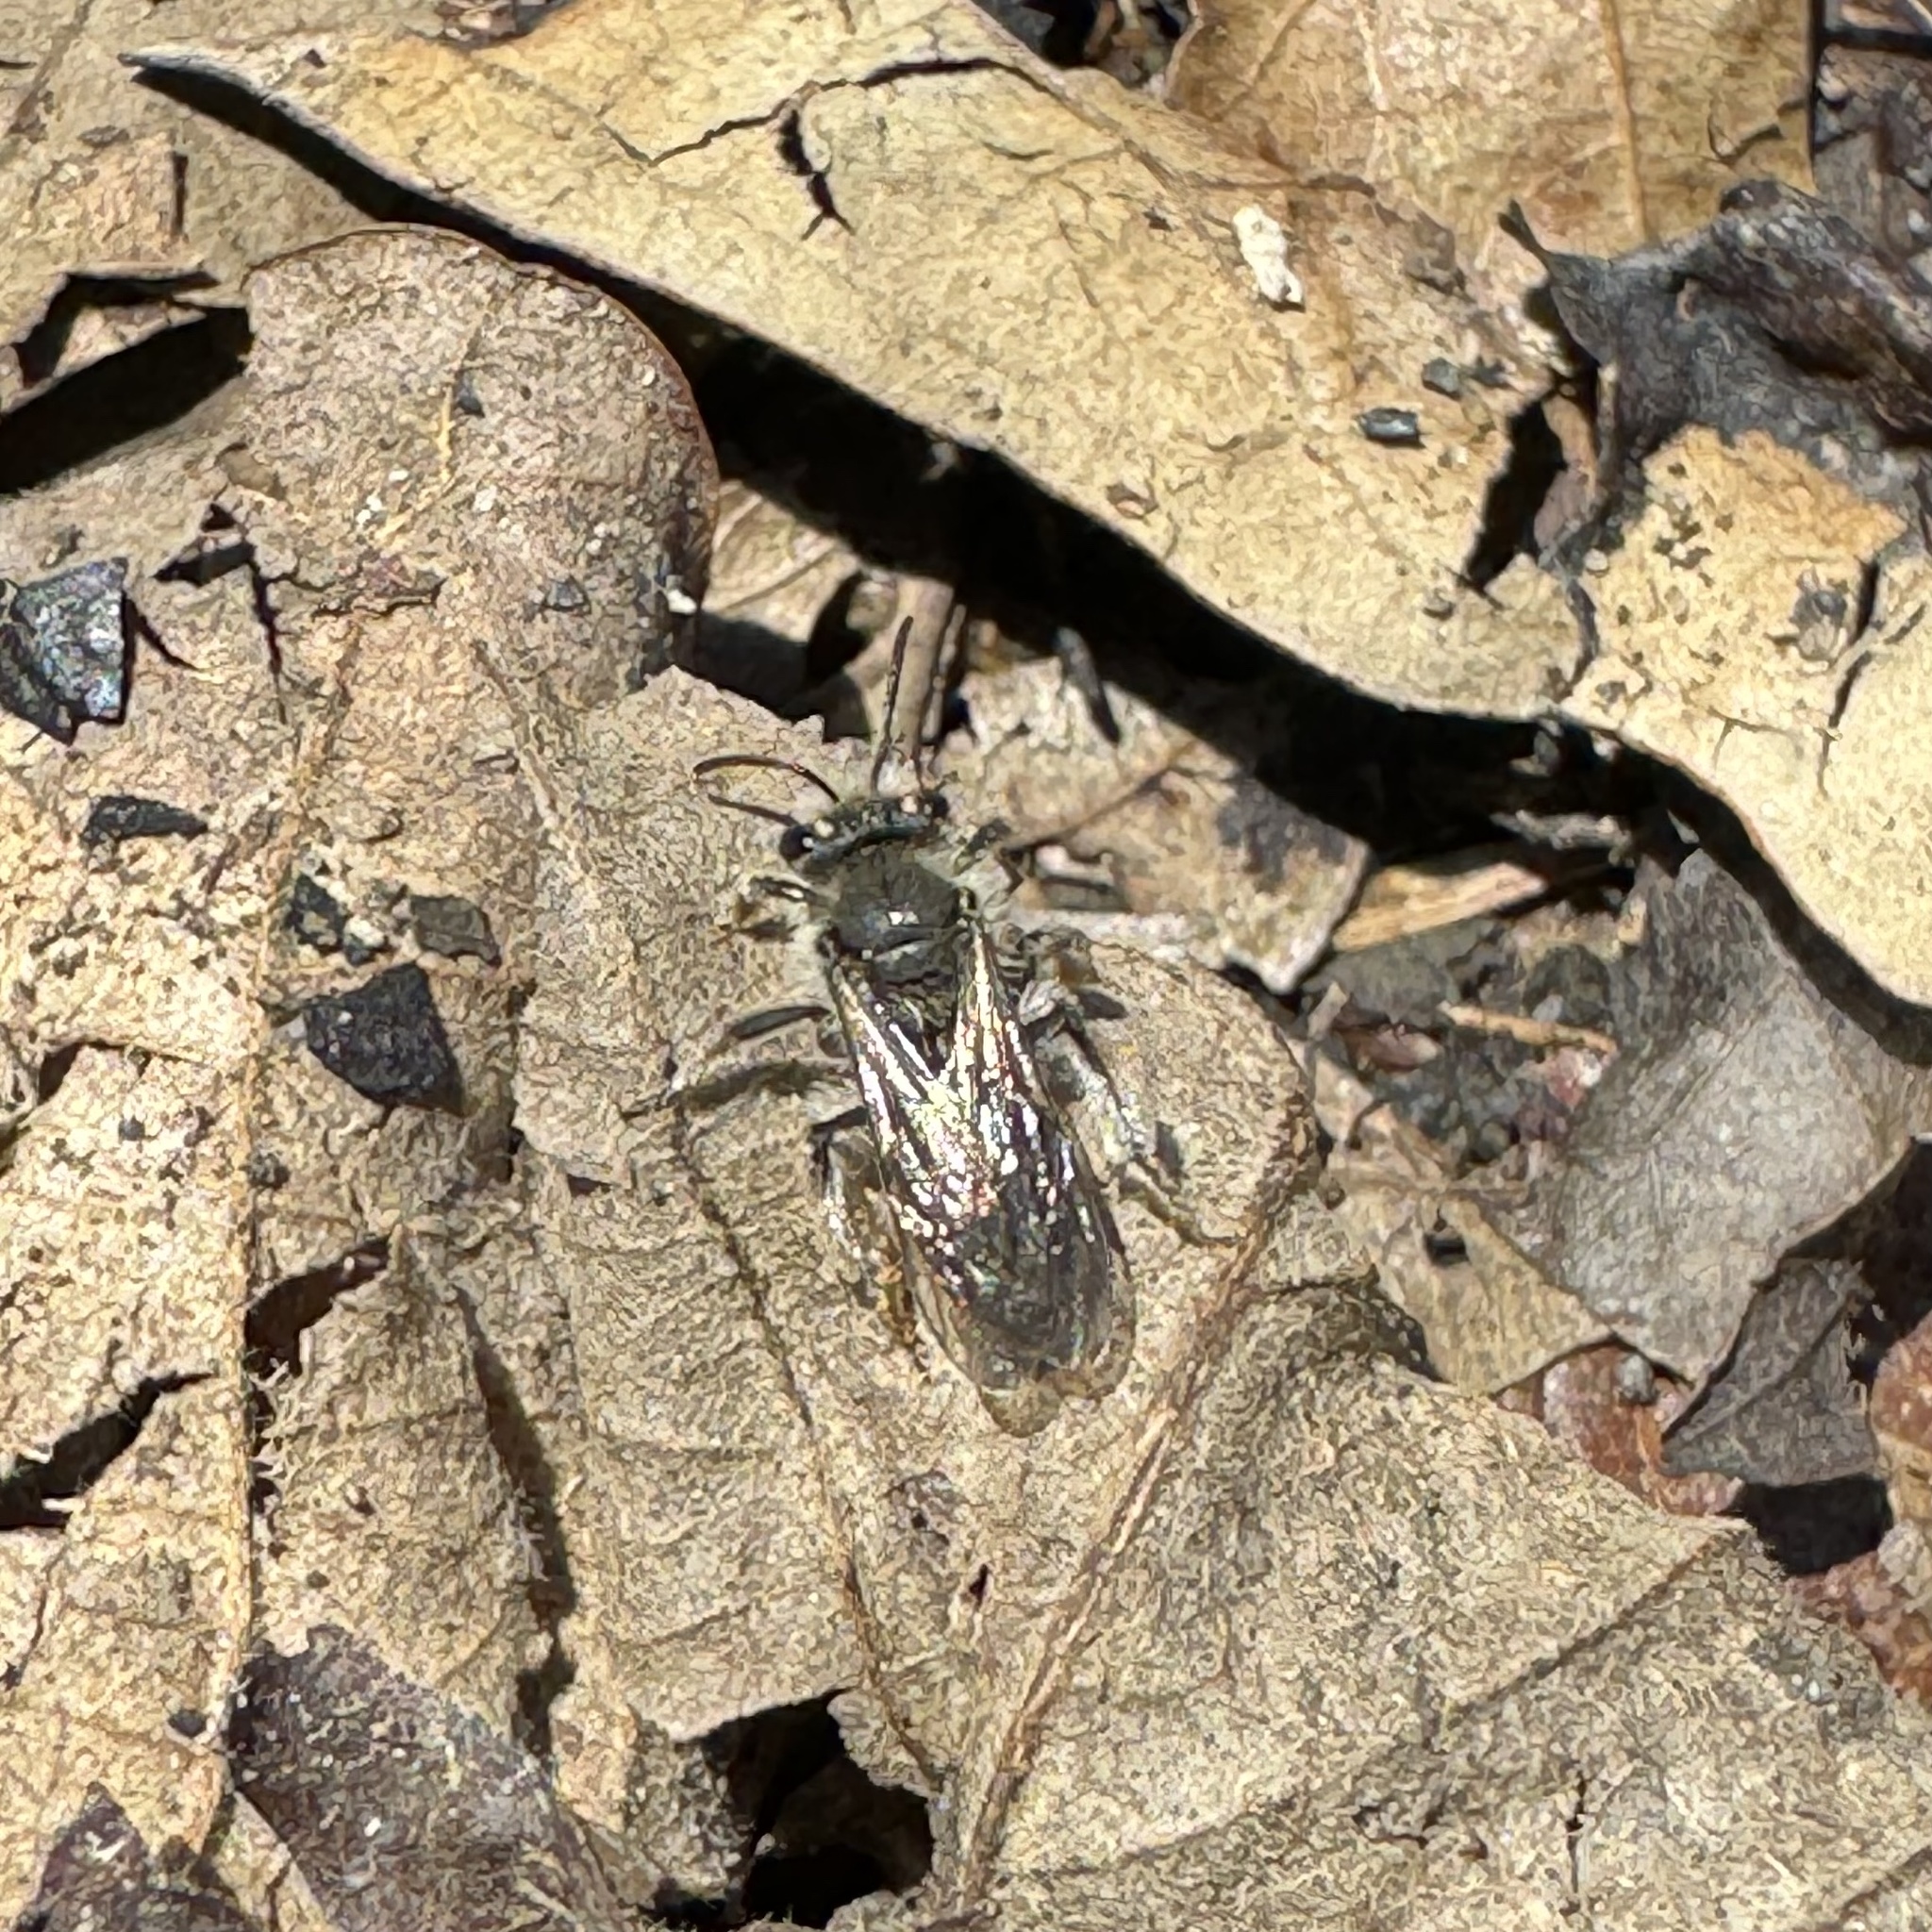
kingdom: Animalia
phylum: Arthropoda
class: Insecta
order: Hymenoptera
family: Andrenidae
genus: Andrena
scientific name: Andrena erigeniae
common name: Spring beauty miner
